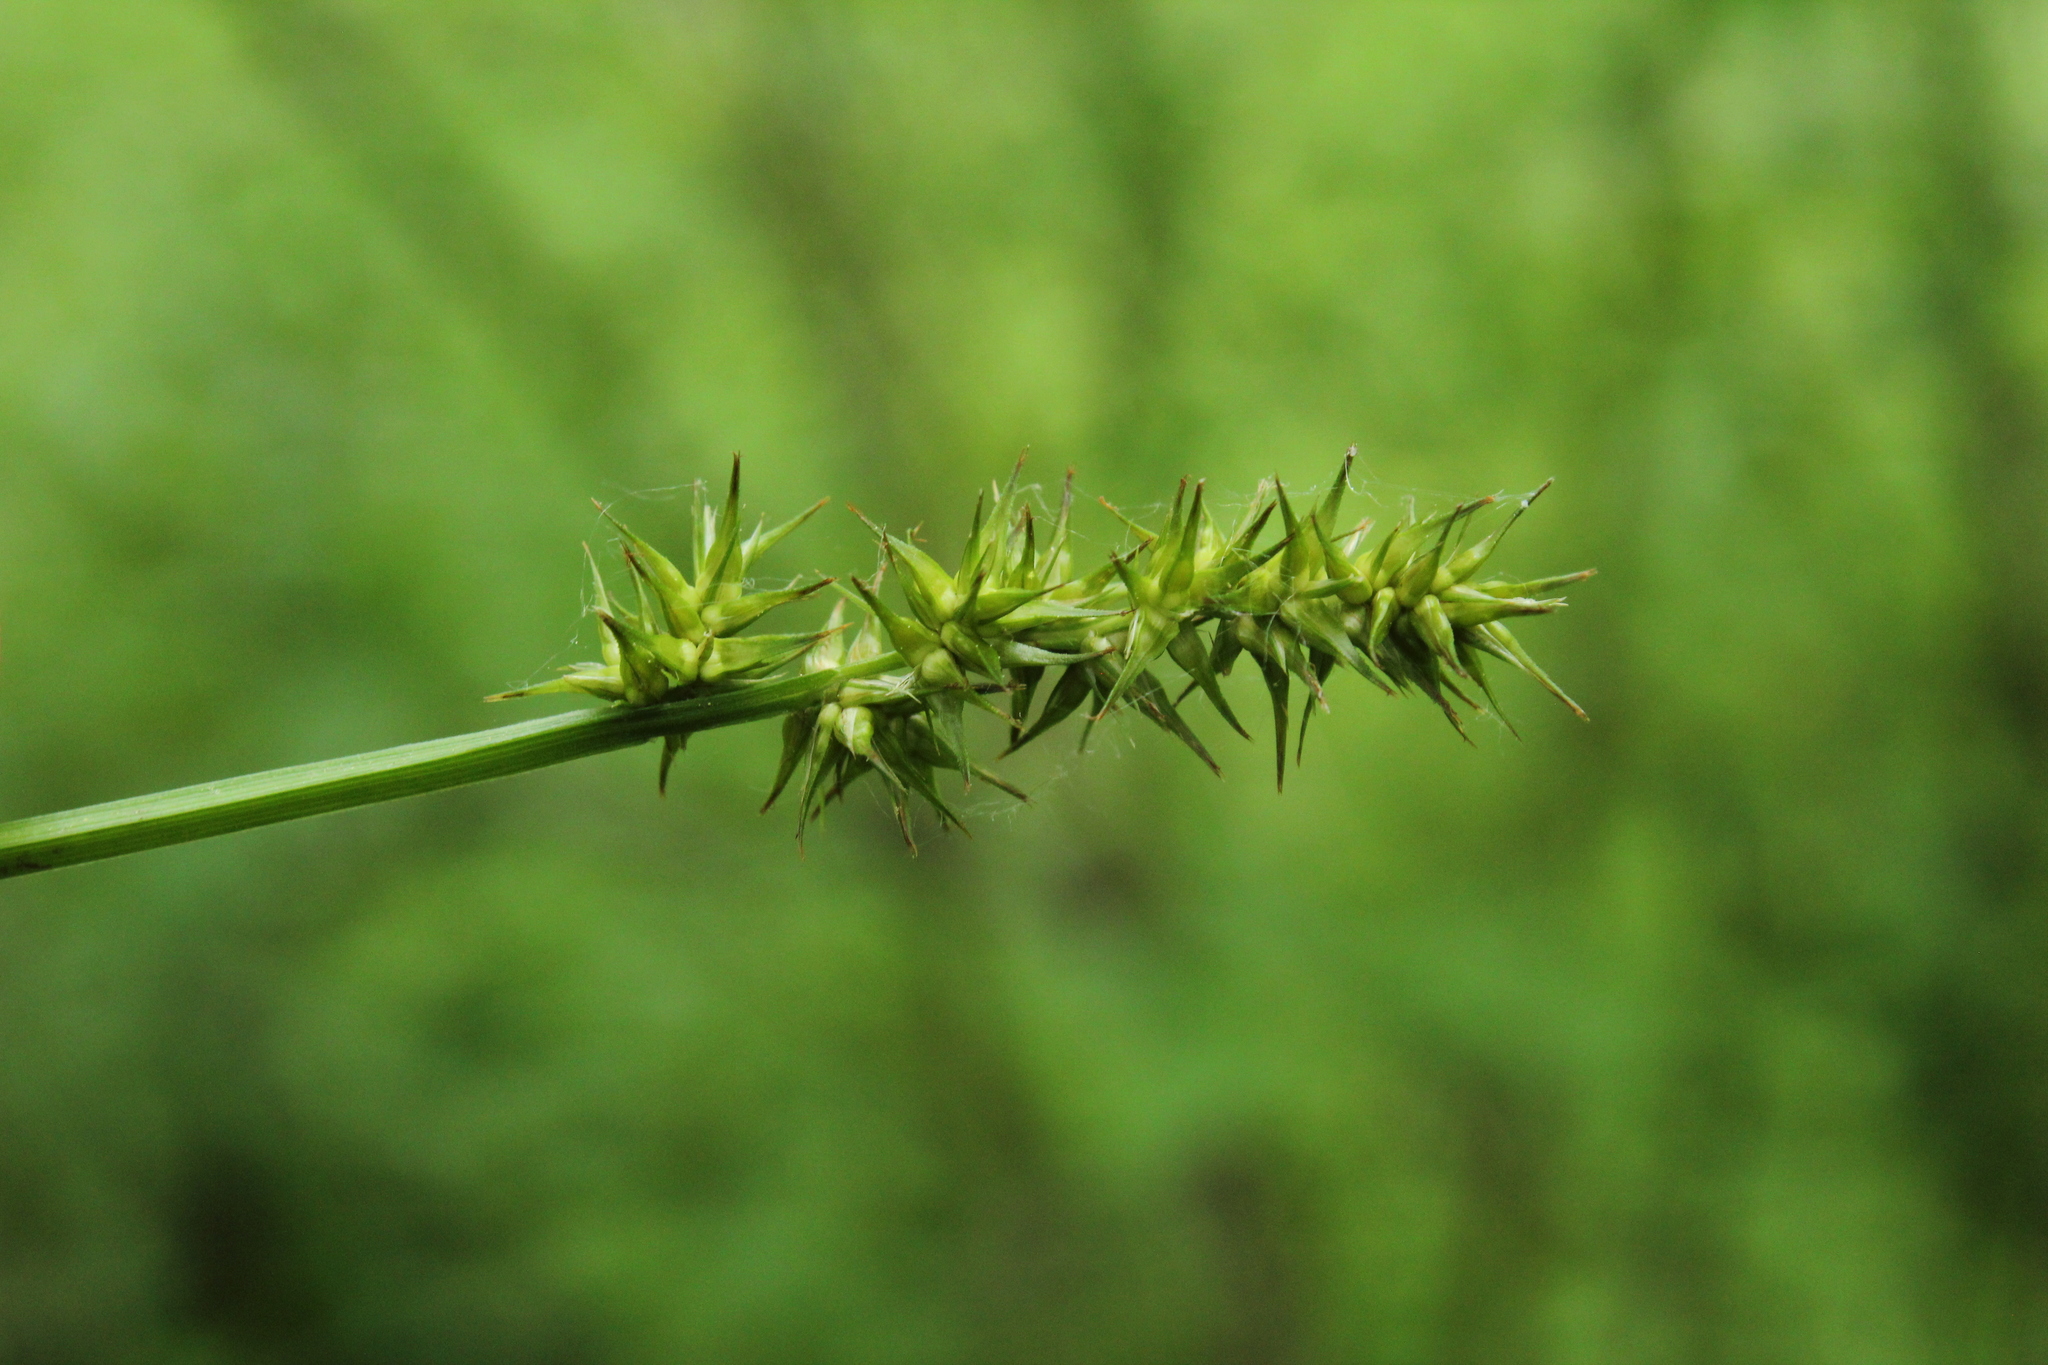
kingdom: Plantae
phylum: Tracheophyta
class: Liliopsida
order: Poales
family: Cyperaceae
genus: Carex
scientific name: Carex laevivaginata
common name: Smooth-sheathed fox sedge
